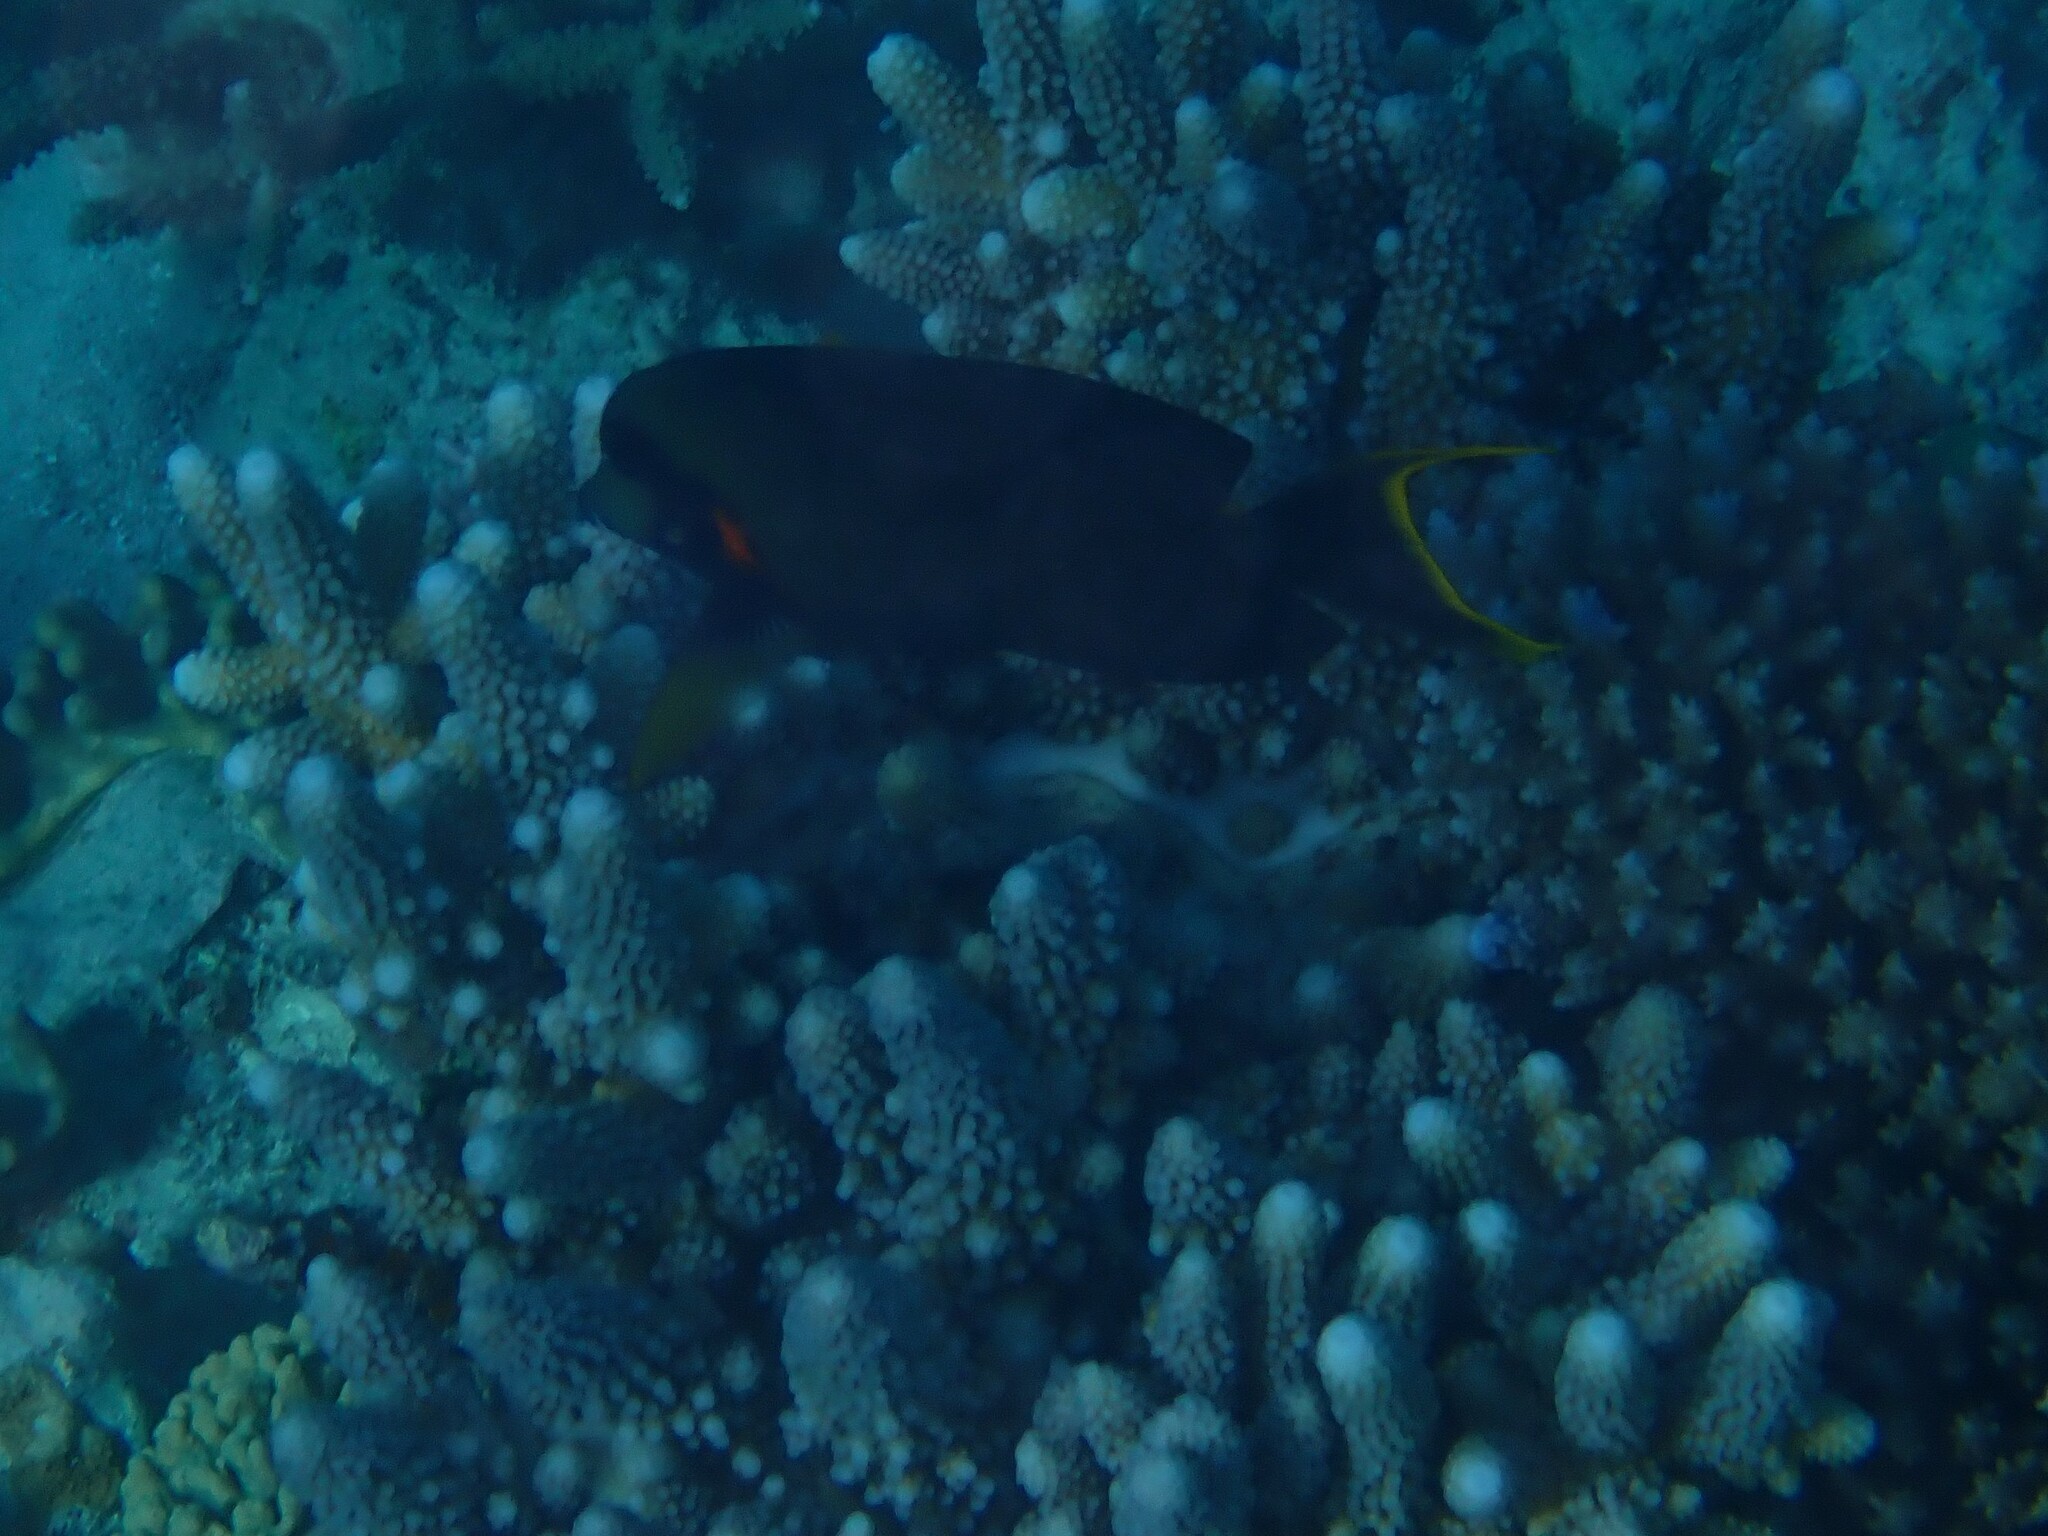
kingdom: Animalia
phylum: Chordata
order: Perciformes
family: Acanthuridae
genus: Acanthurus
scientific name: Acanthurus pyroferus
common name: Chocolate surgeonfish
